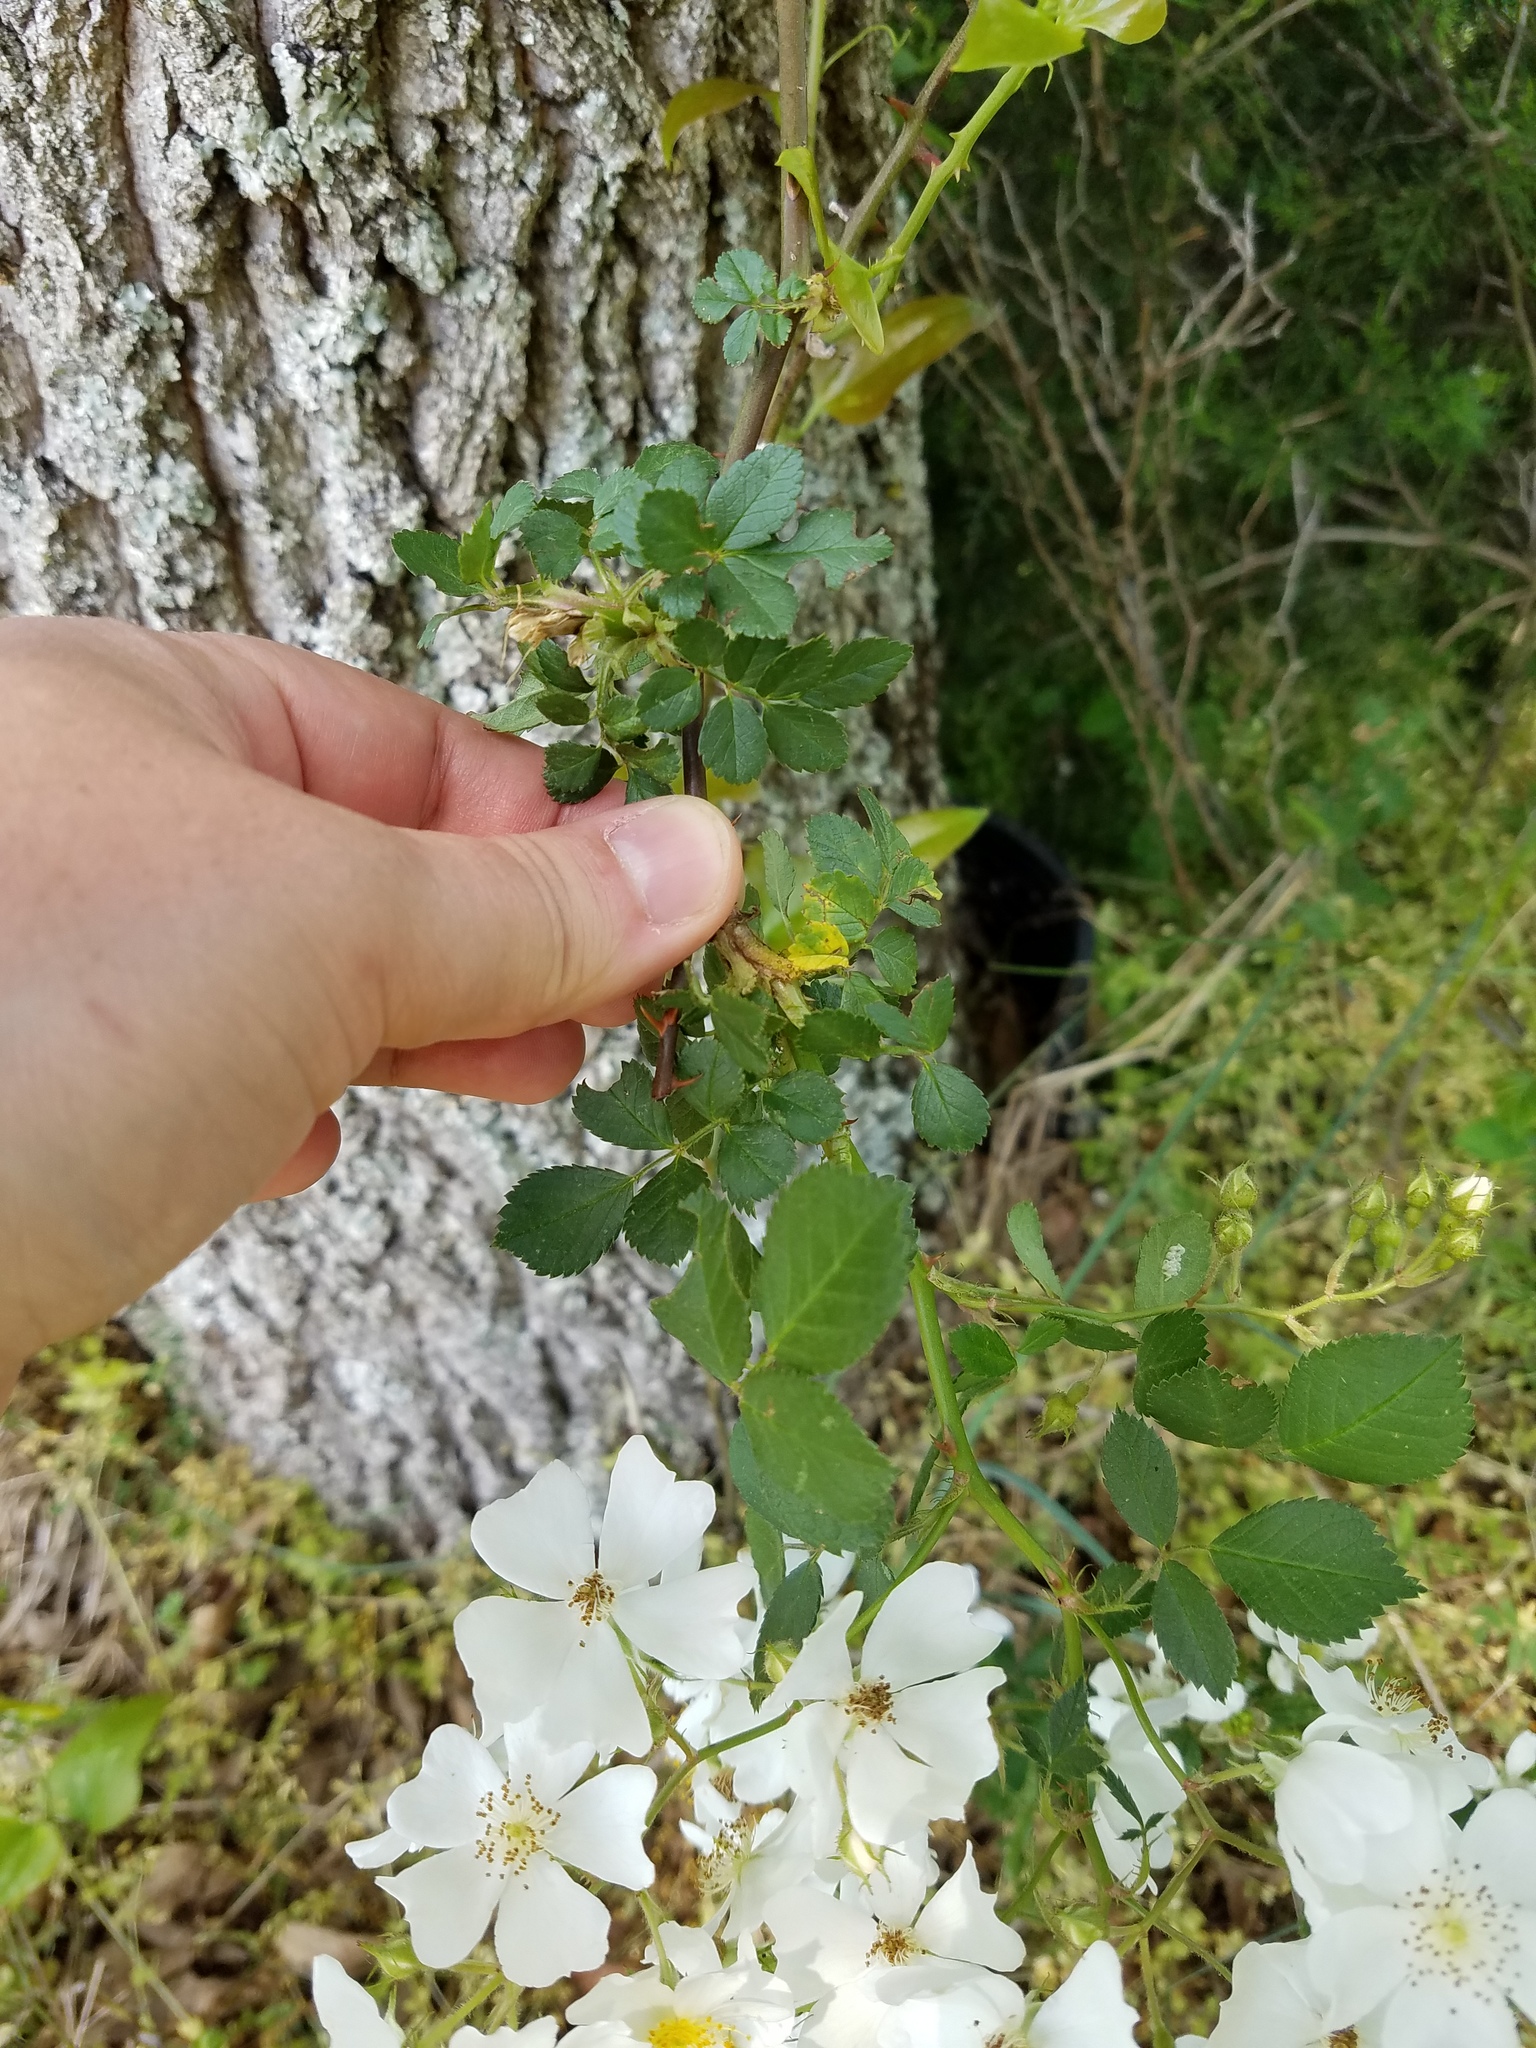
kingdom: Plantae
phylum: Tracheophyta
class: Magnoliopsida
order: Rosales
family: Rosaceae
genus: Rosa
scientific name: Rosa multiflora
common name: Multiflora rose
